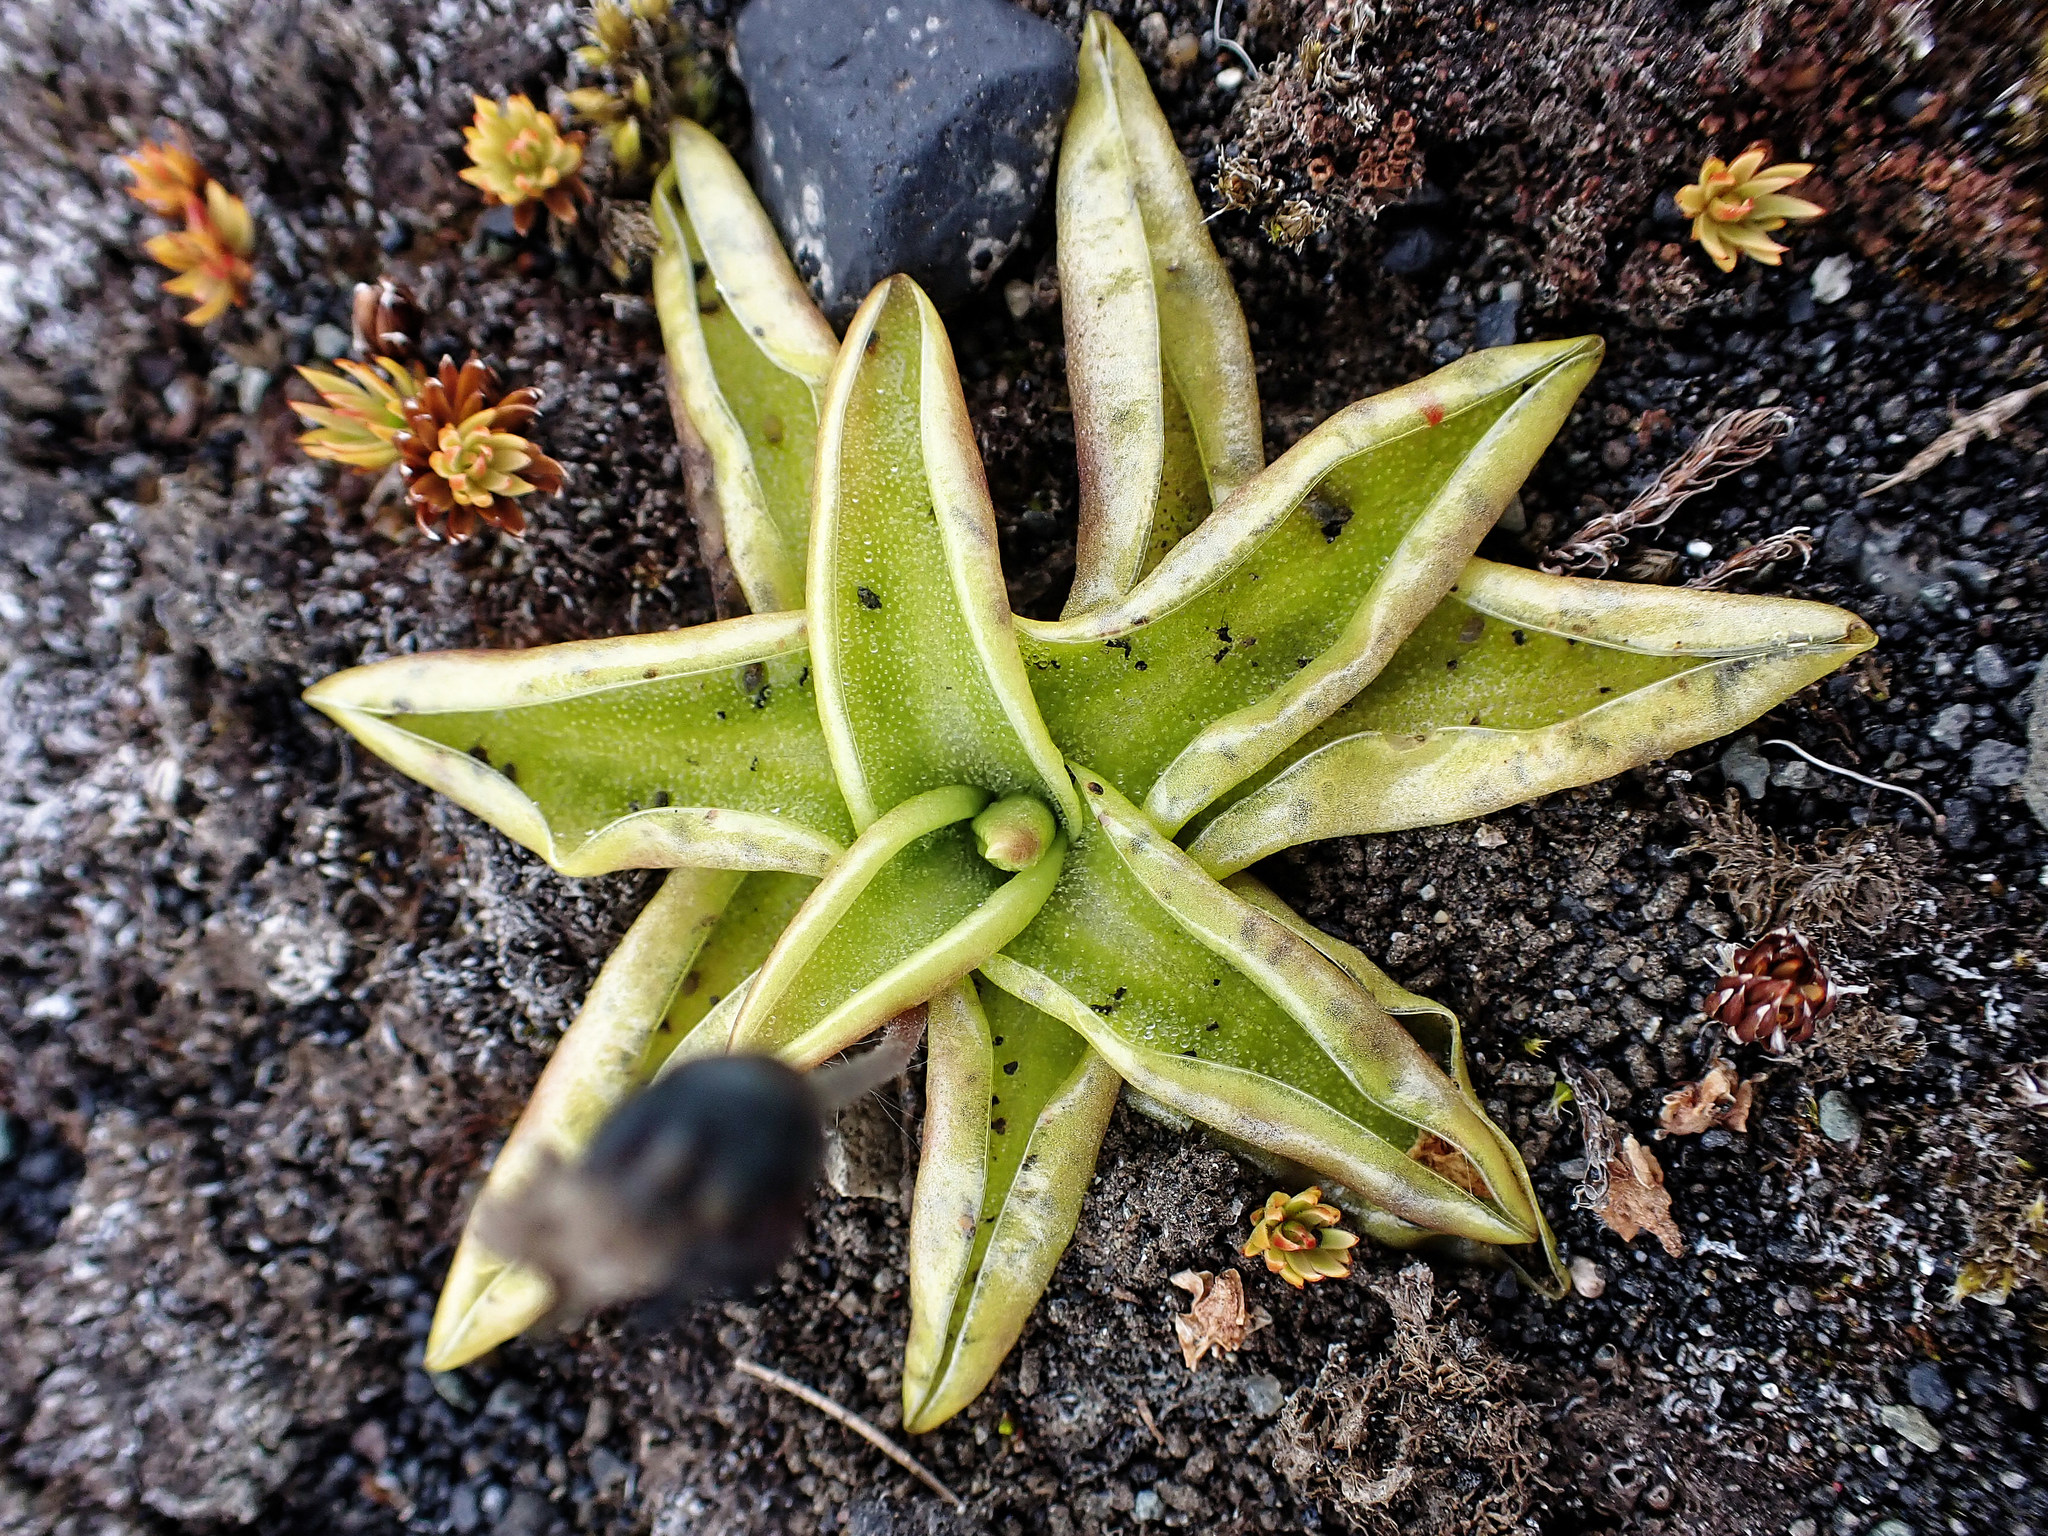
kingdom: Plantae
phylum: Tracheophyta
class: Magnoliopsida
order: Lamiales
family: Lentibulariaceae
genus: Pinguicula
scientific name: Pinguicula vulgaris
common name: Common butterwort
